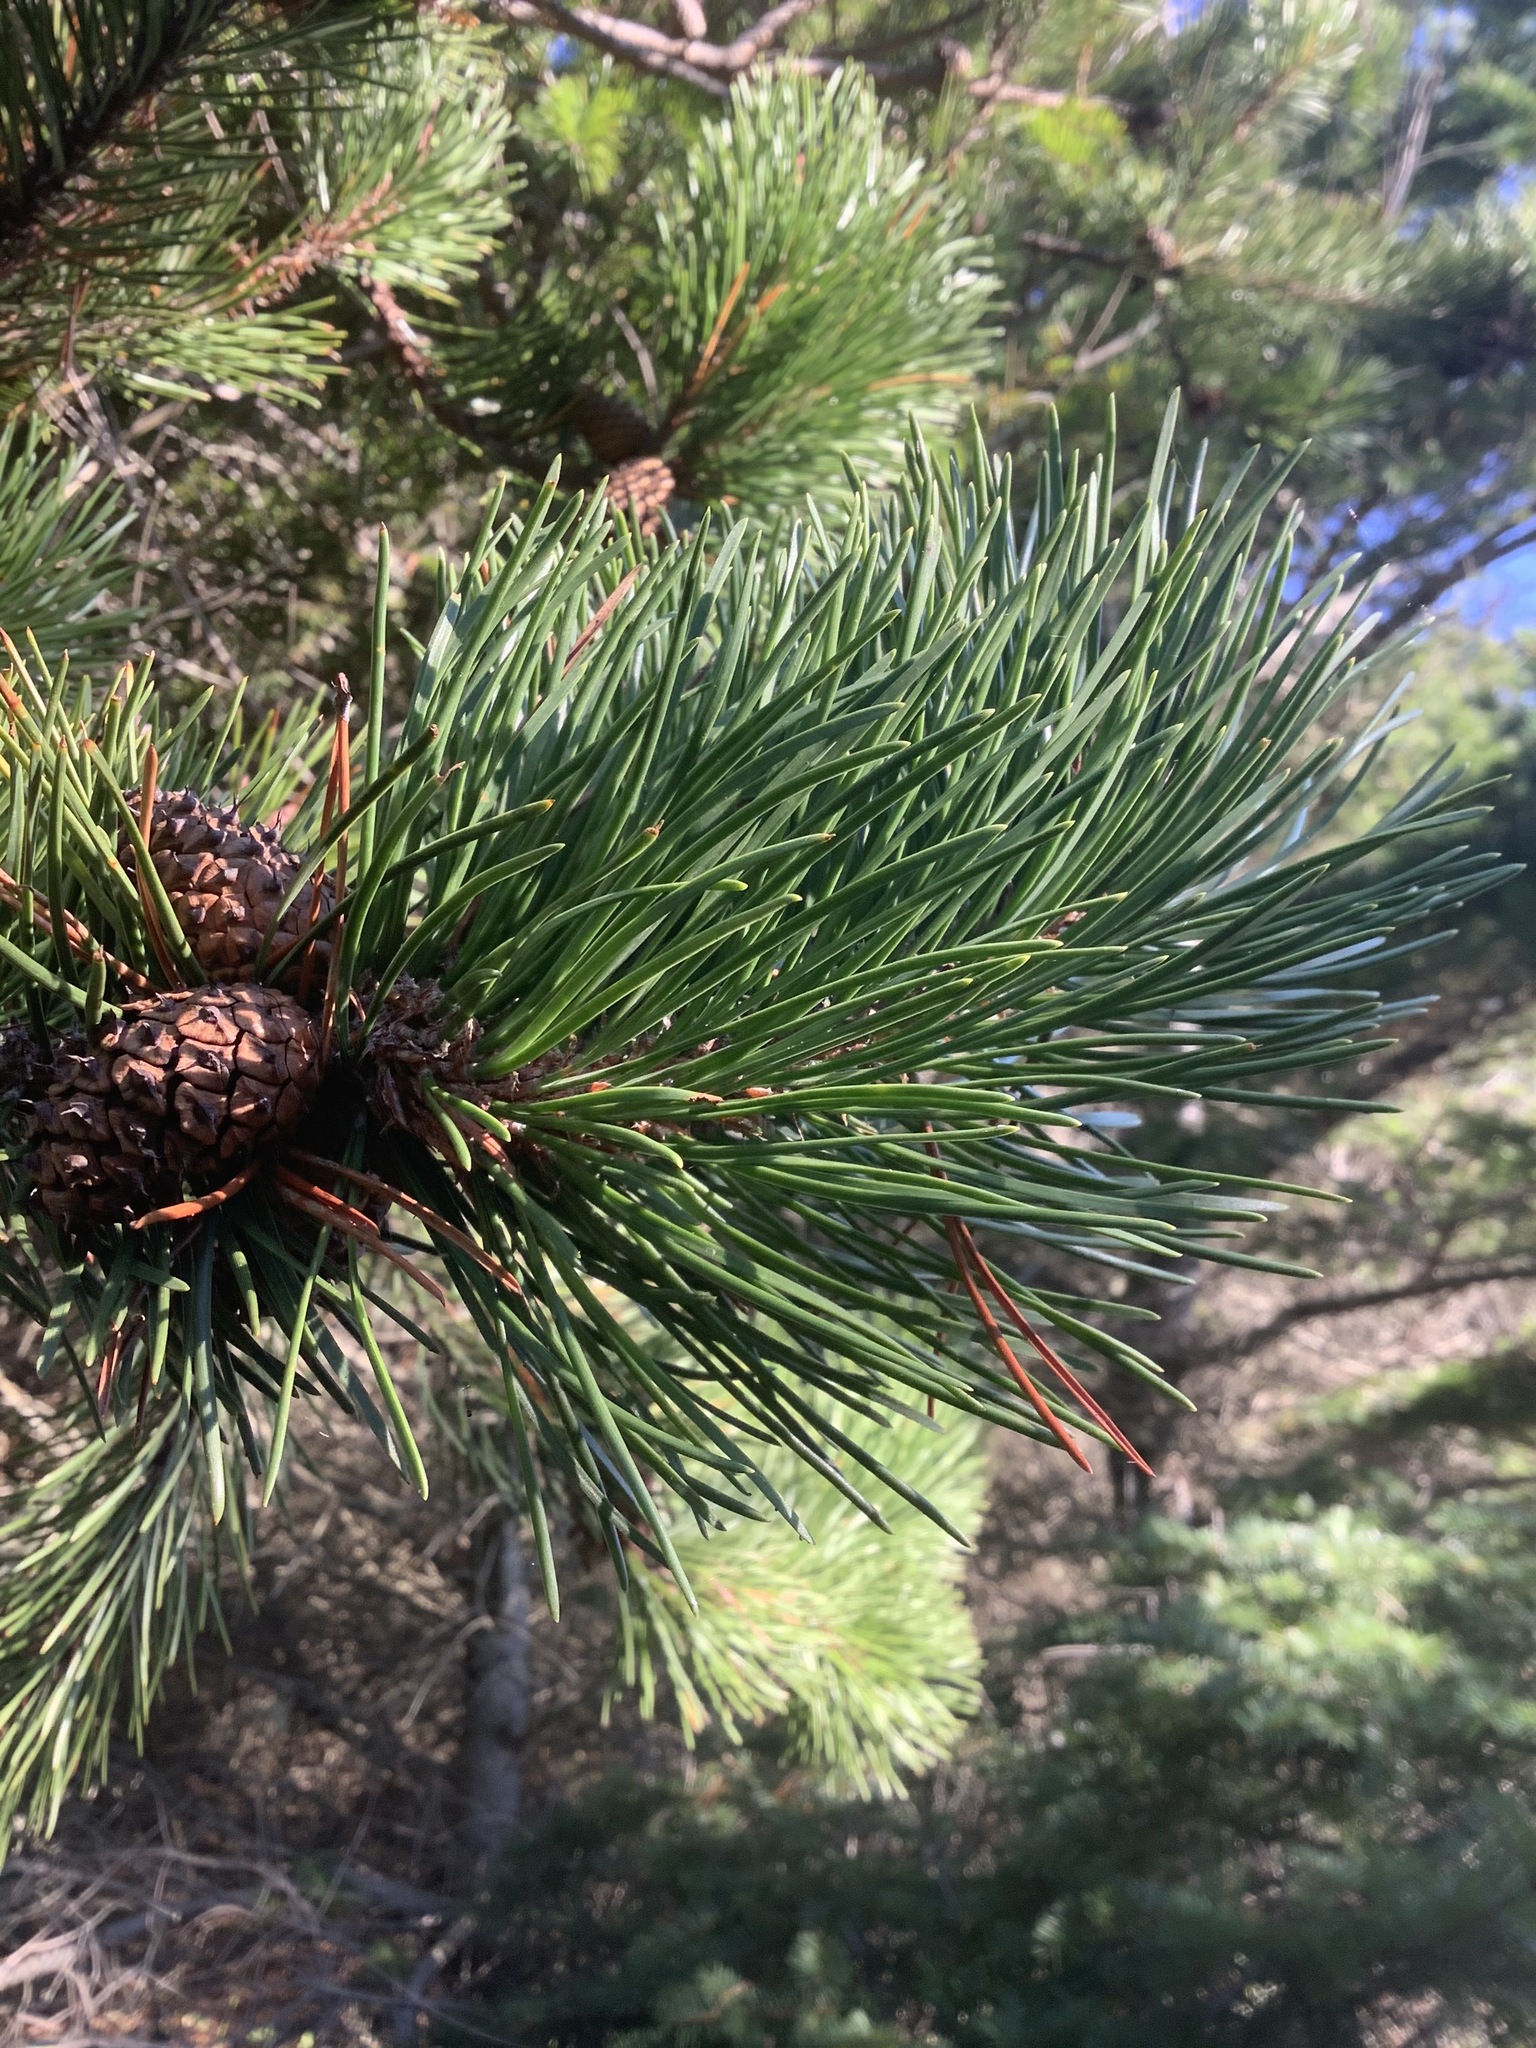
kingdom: Plantae
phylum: Tracheophyta
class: Pinopsida
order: Pinales
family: Pinaceae
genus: Pinus
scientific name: Pinus contorta
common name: Lodgepole pine
